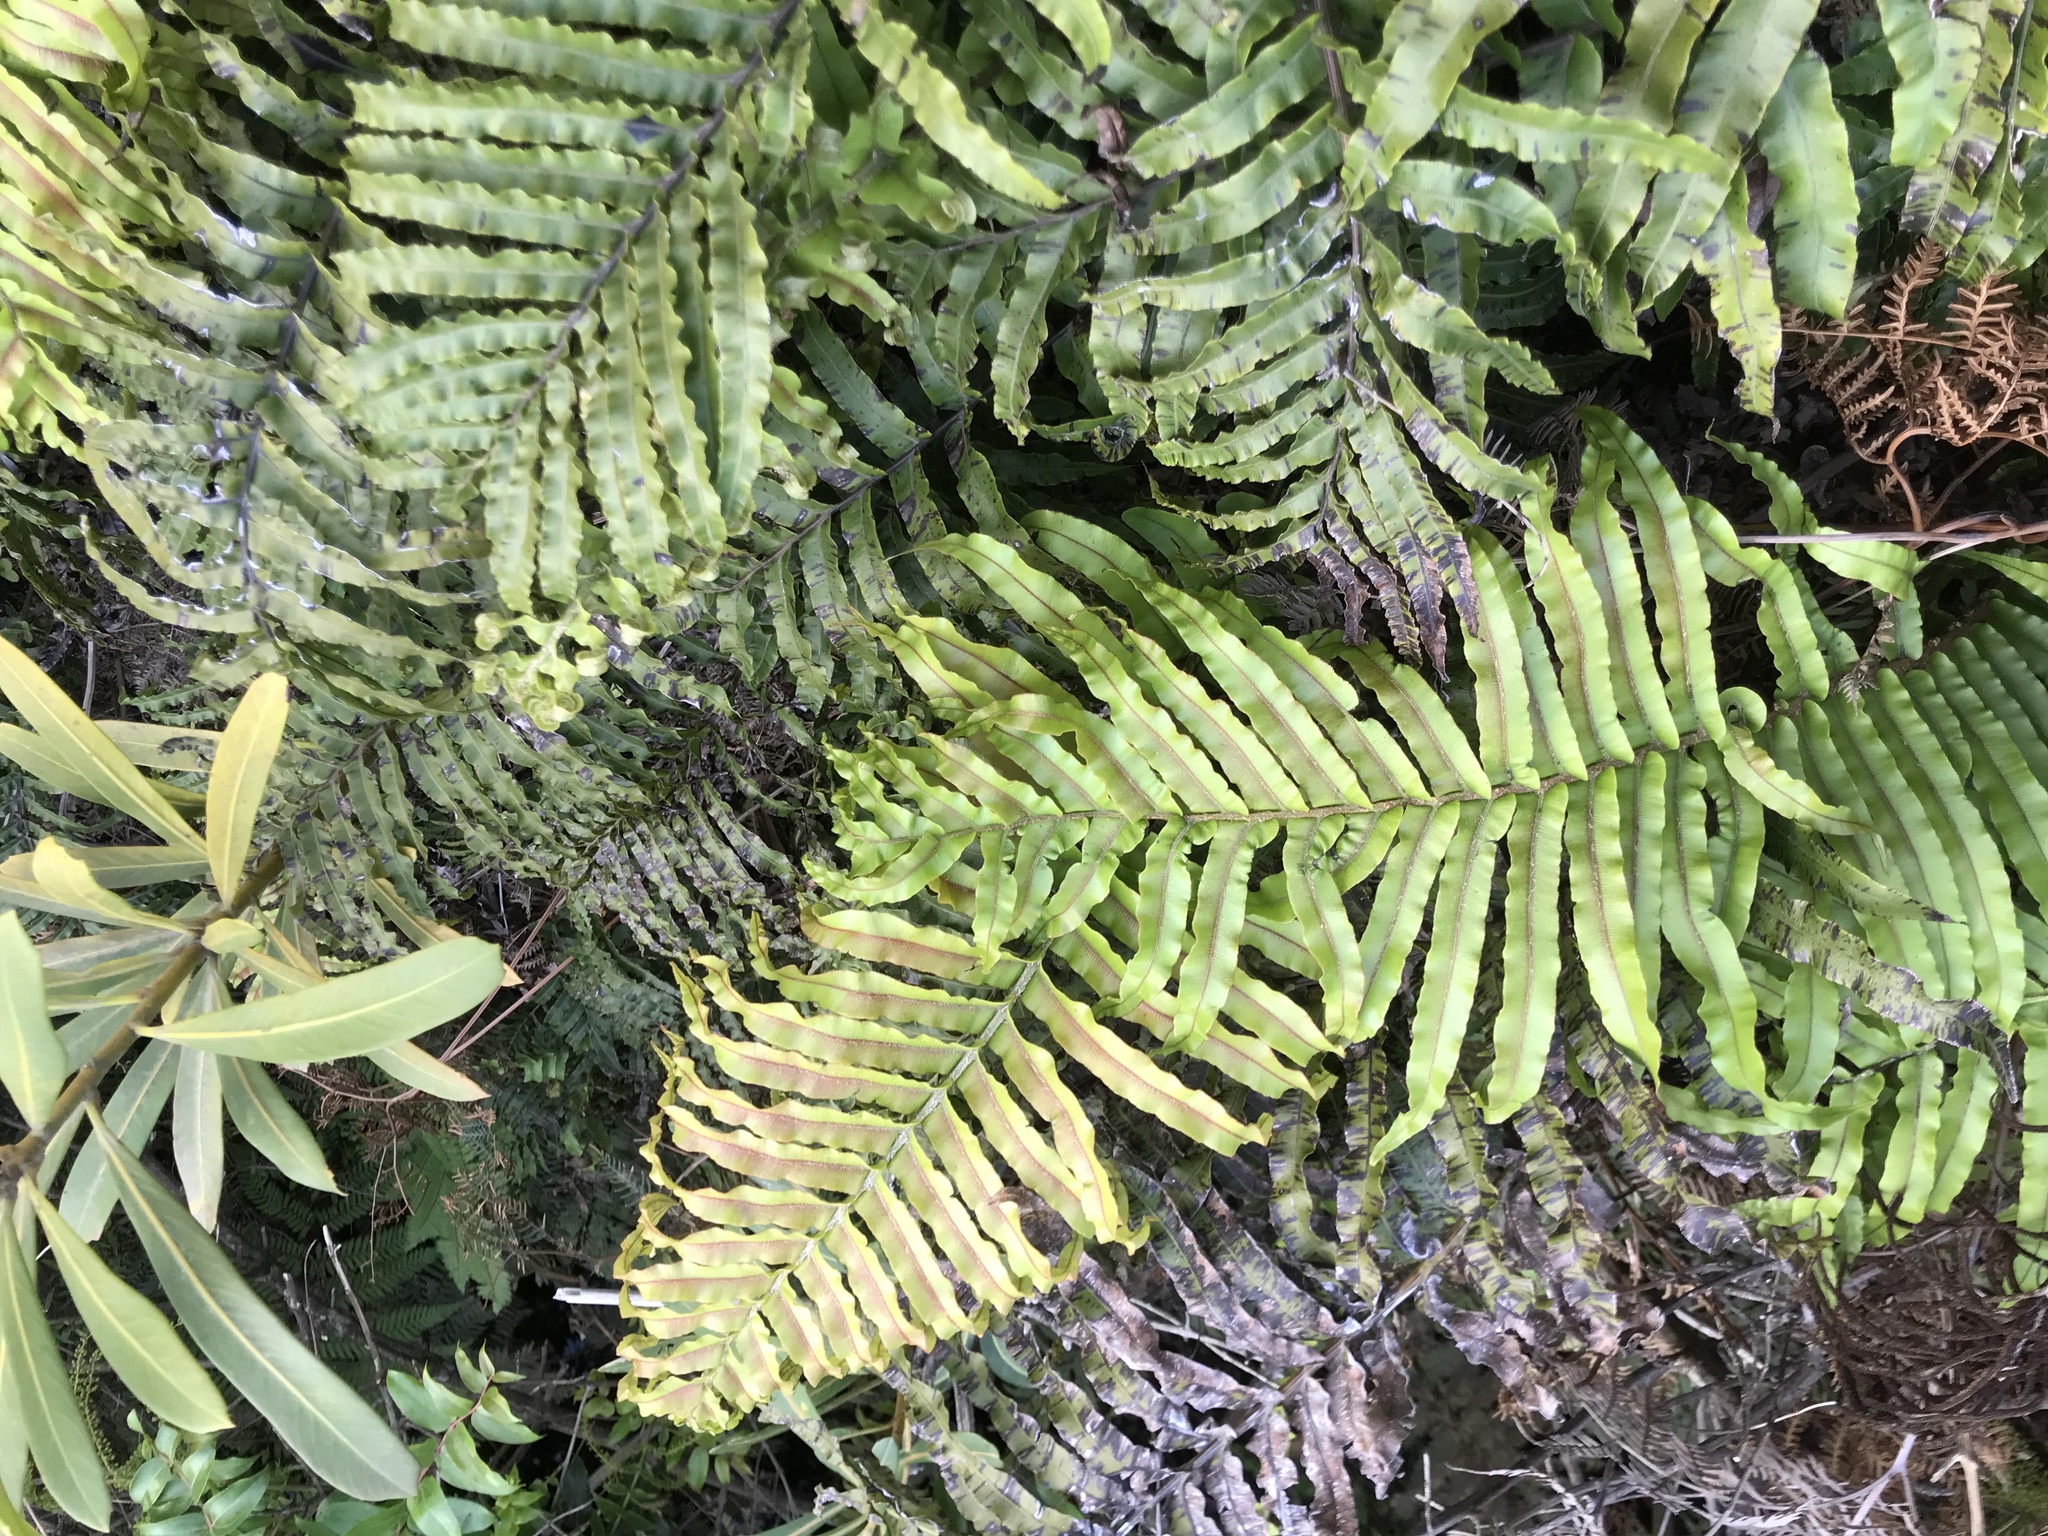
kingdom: Plantae
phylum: Tracheophyta
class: Polypodiopsida
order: Polypodiales
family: Blechnaceae
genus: Parablechnum
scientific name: Parablechnum novae-zelandiae
